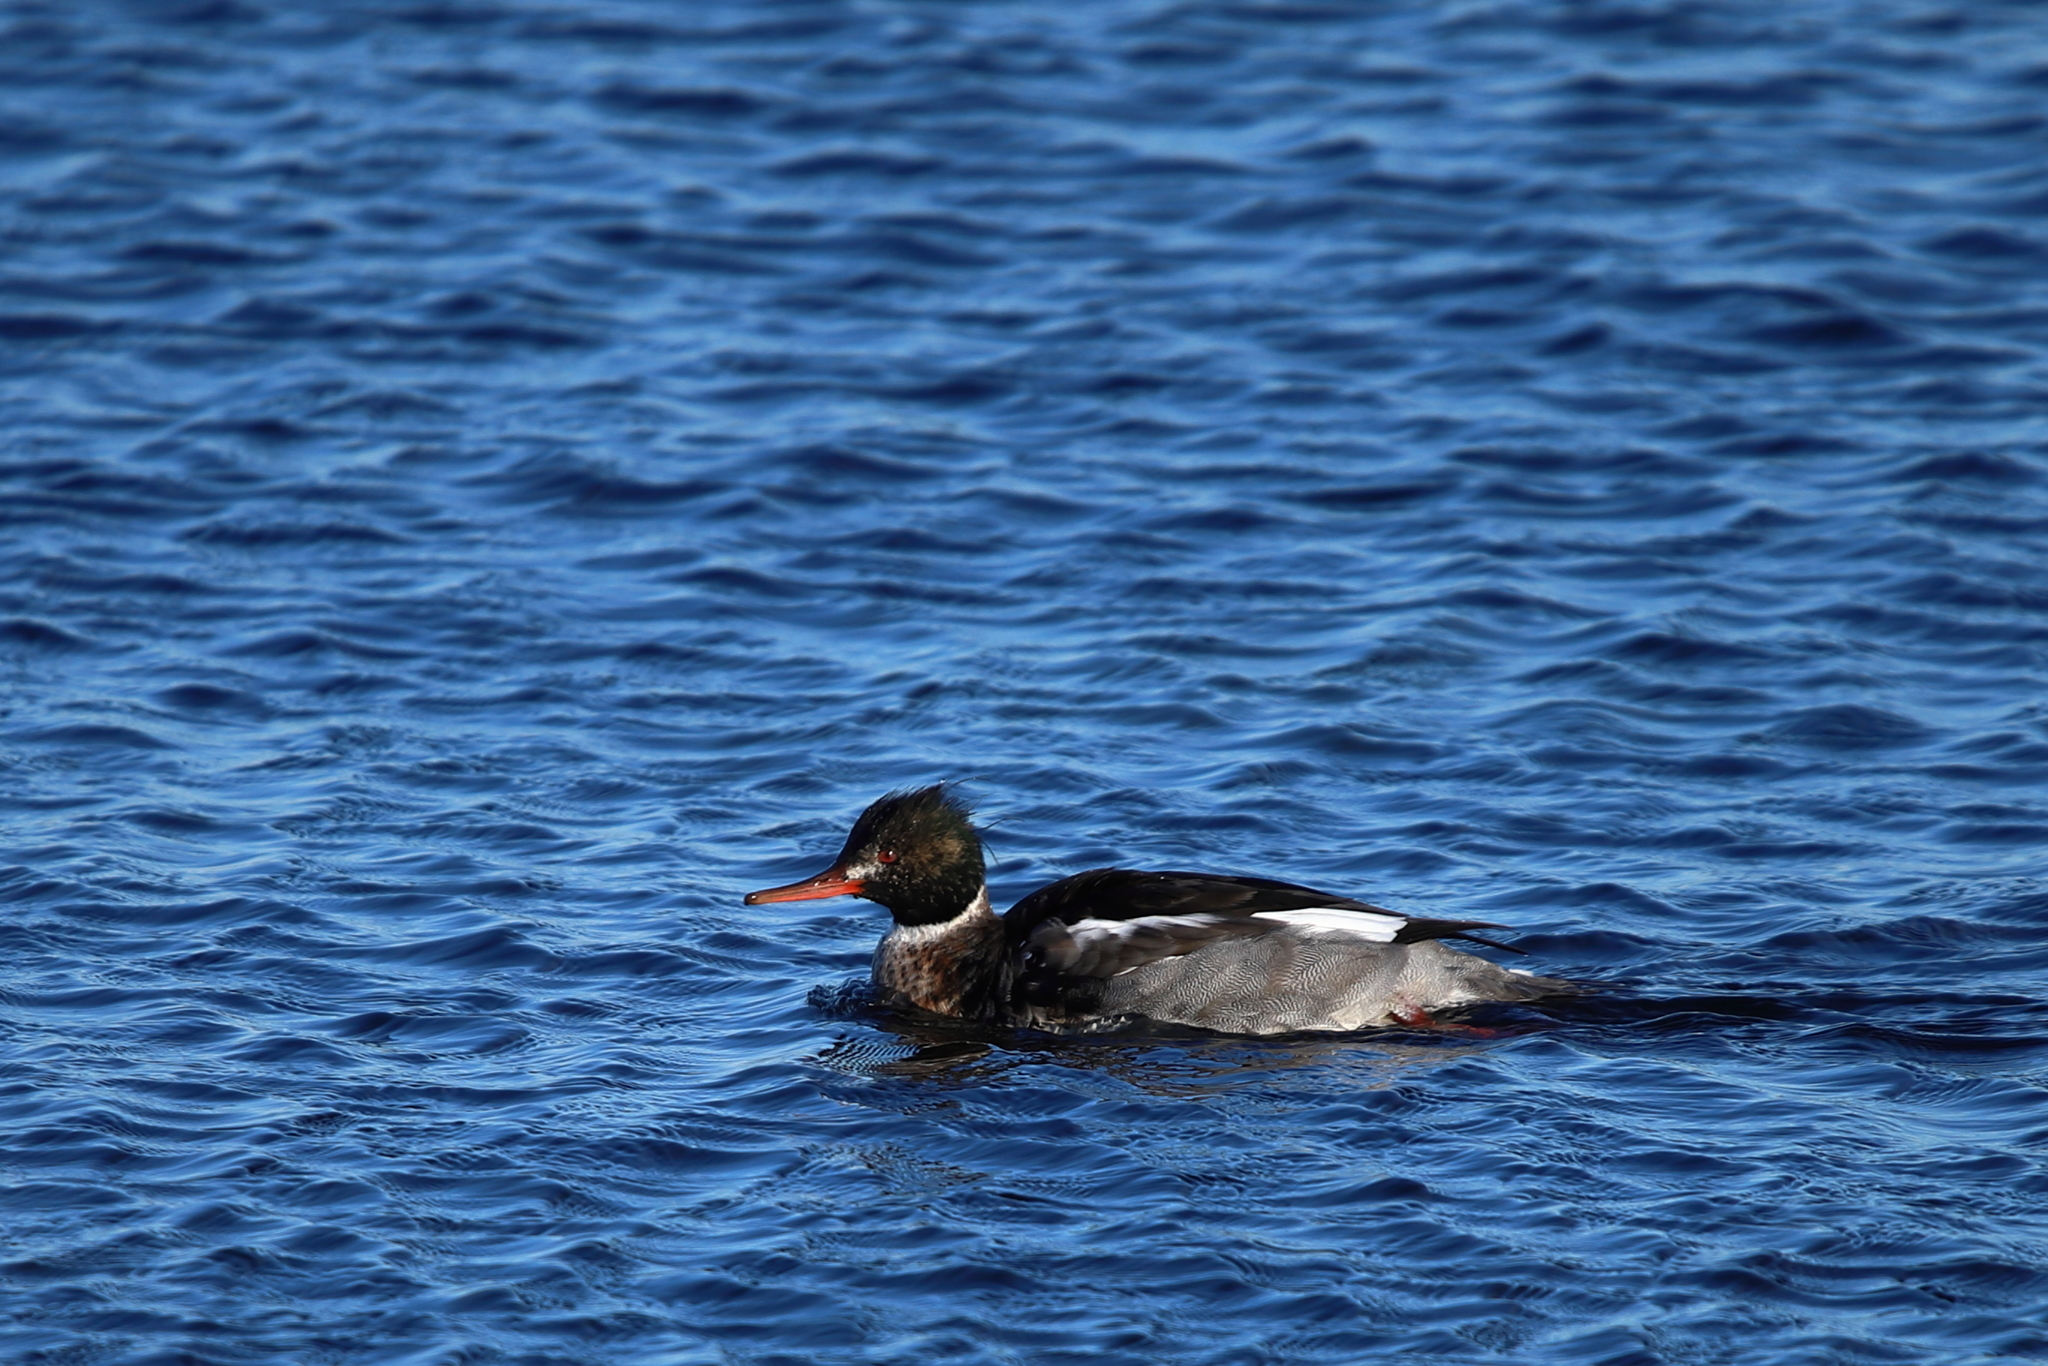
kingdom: Animalia
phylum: Chordata
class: Aves
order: Anseriformes
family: Anatidae
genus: Mergus
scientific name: Mergus serrator
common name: Red-breasted merganser
